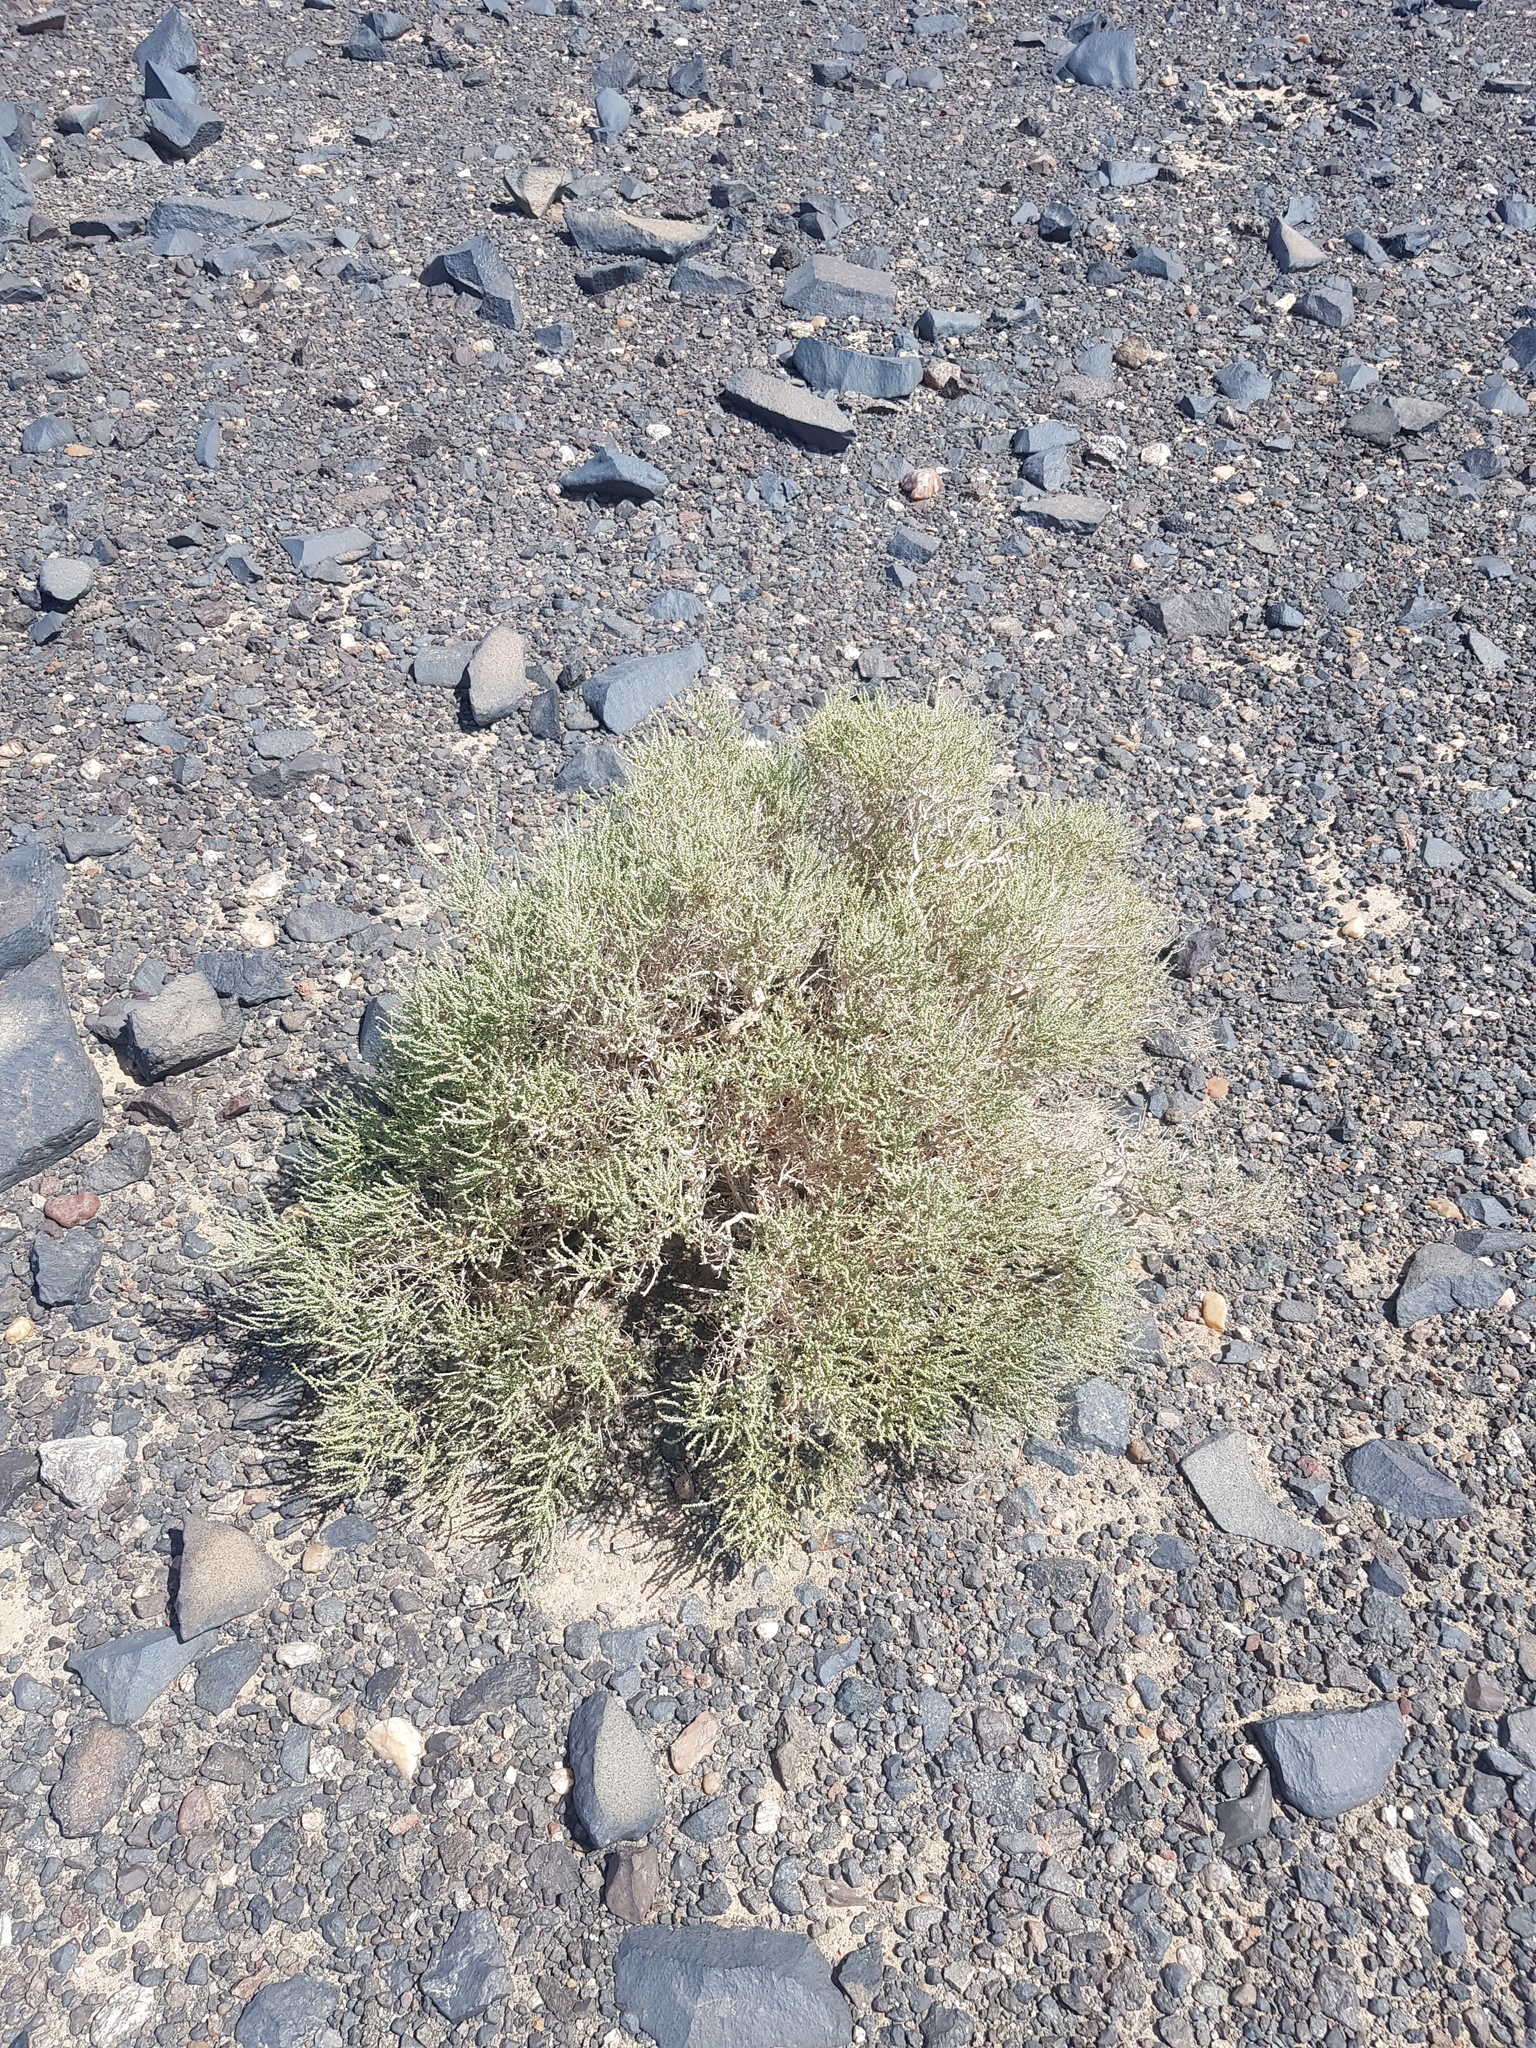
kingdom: Plantae
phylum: Tracheophyta
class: Gnetopsida
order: Ephedrales
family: Ephedraceae
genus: Ephedra
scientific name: Ephedra przewalskii
